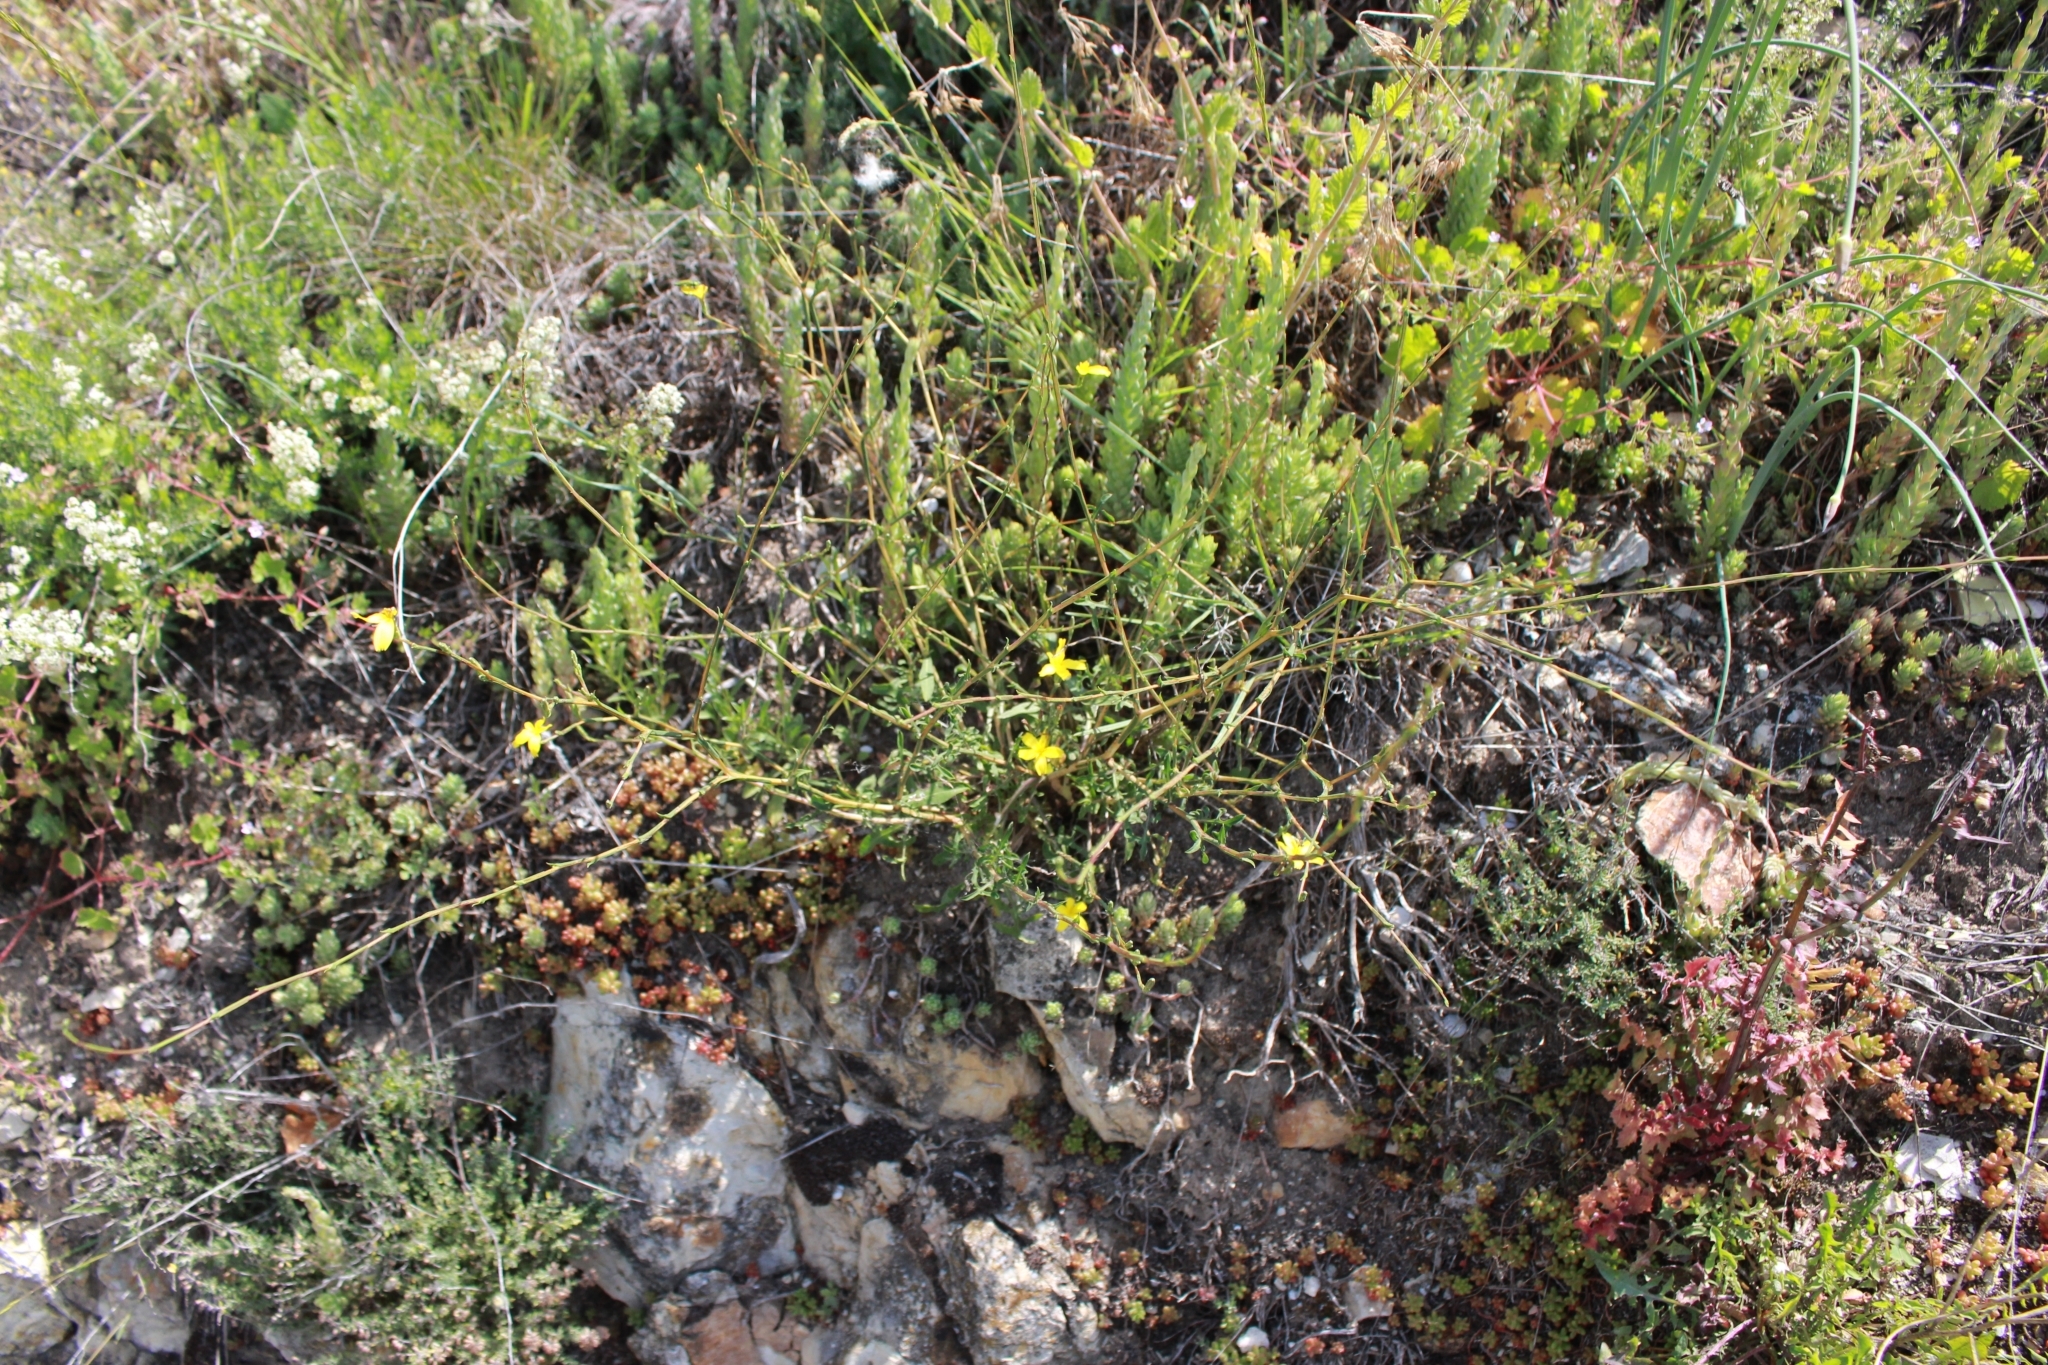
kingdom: Plantae
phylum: Tracheophyta
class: Magnoliopsida
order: Asterales
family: Asteraceae
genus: Lactuca
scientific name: Lactuca viminea
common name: Pliant lettuce
